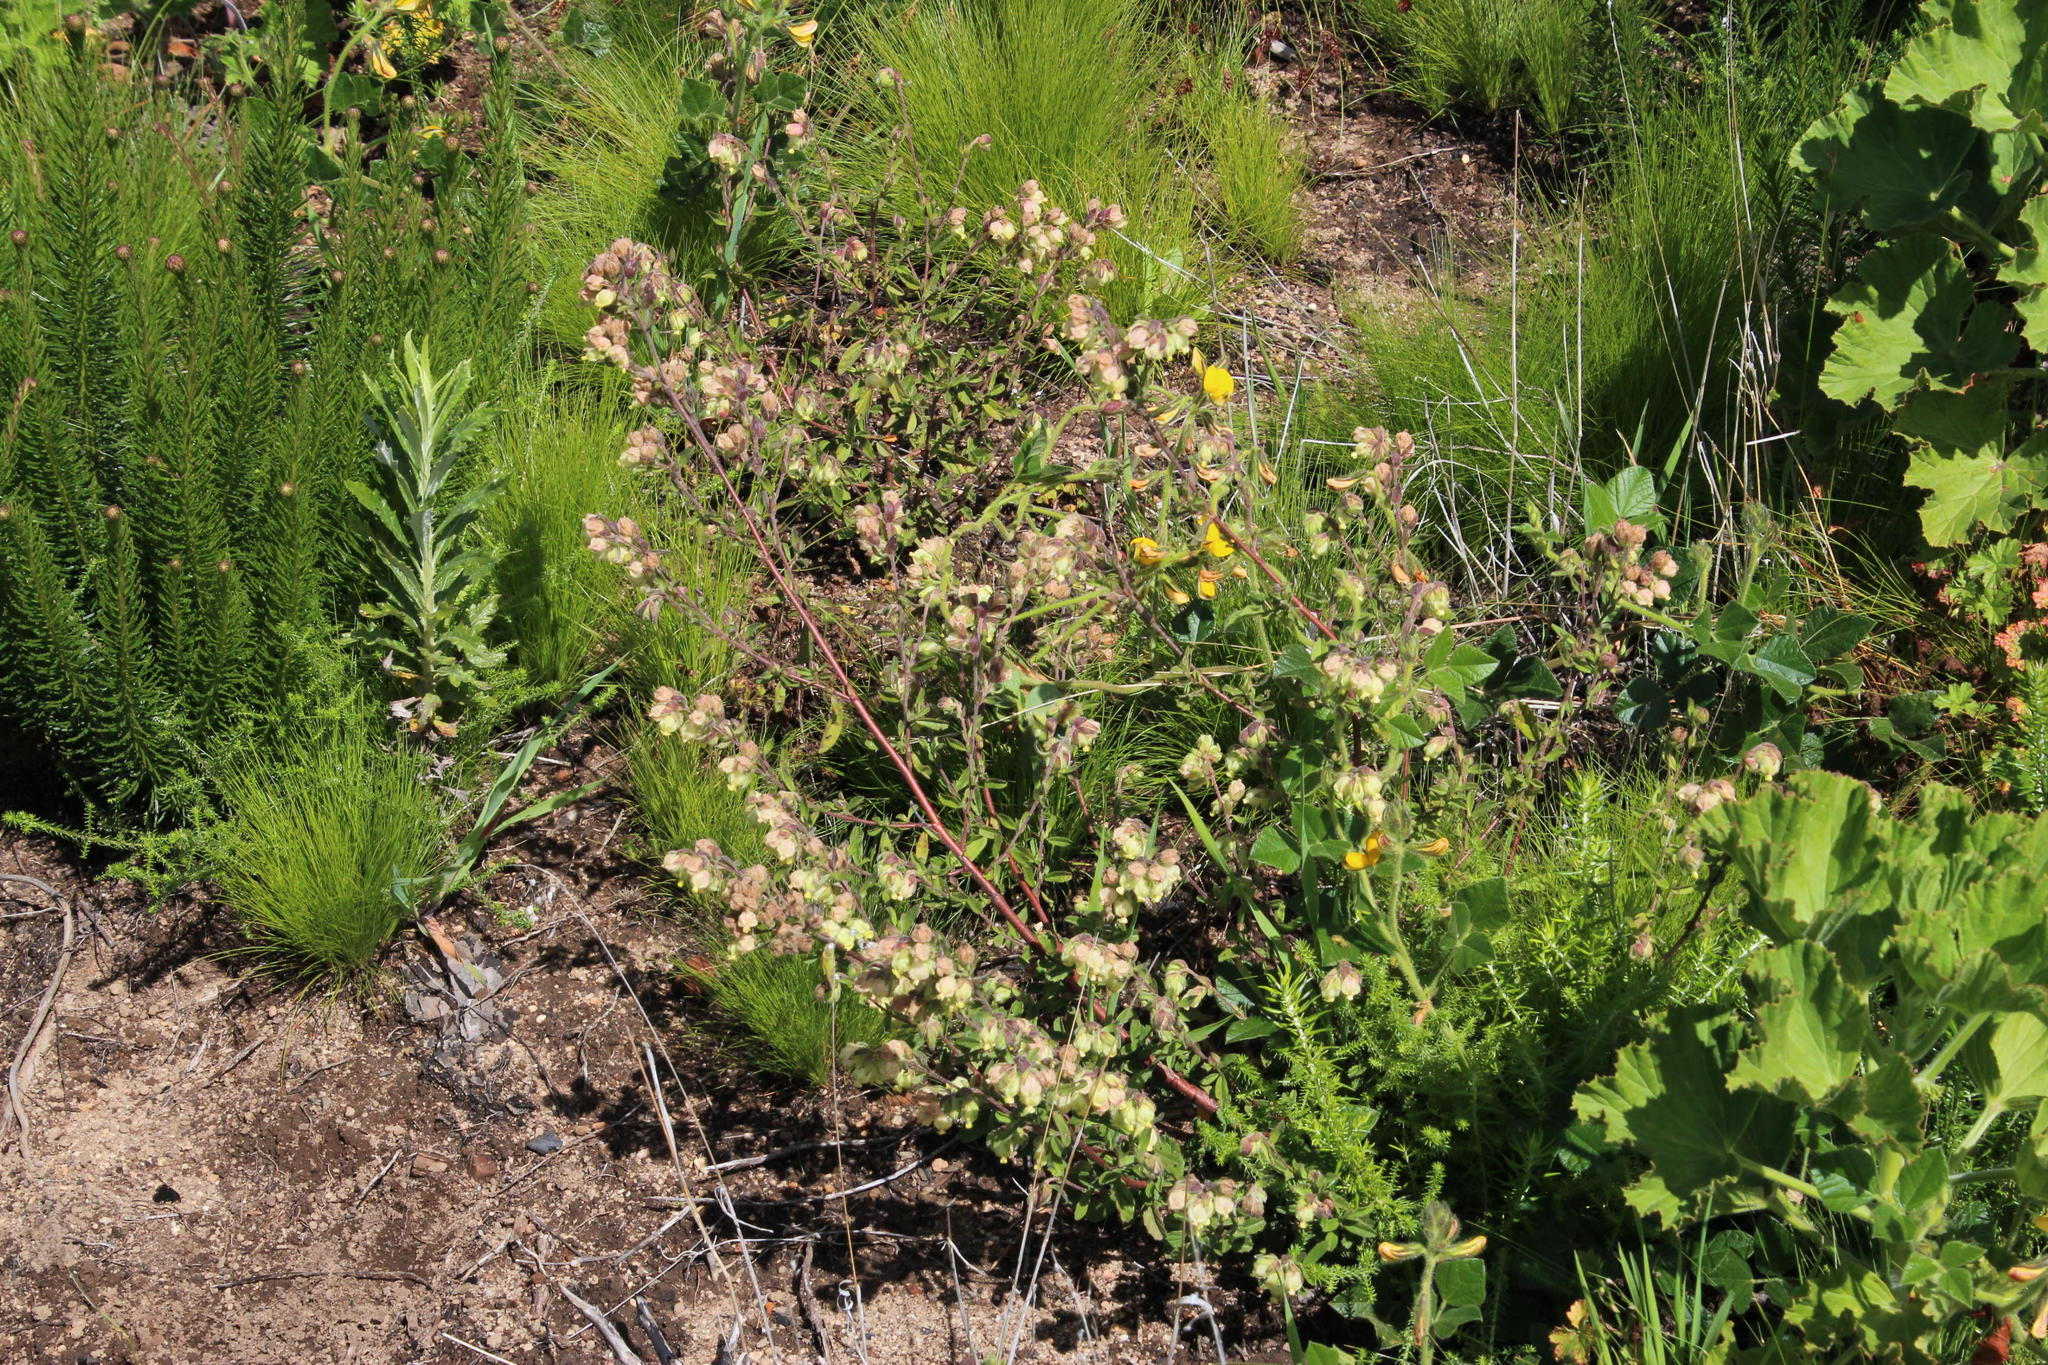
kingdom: Plantae
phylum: Tracheophyta
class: Magnoliopsida
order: Malvales
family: Malvaceae
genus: Hermannia
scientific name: Hermannia hyssopifolia
